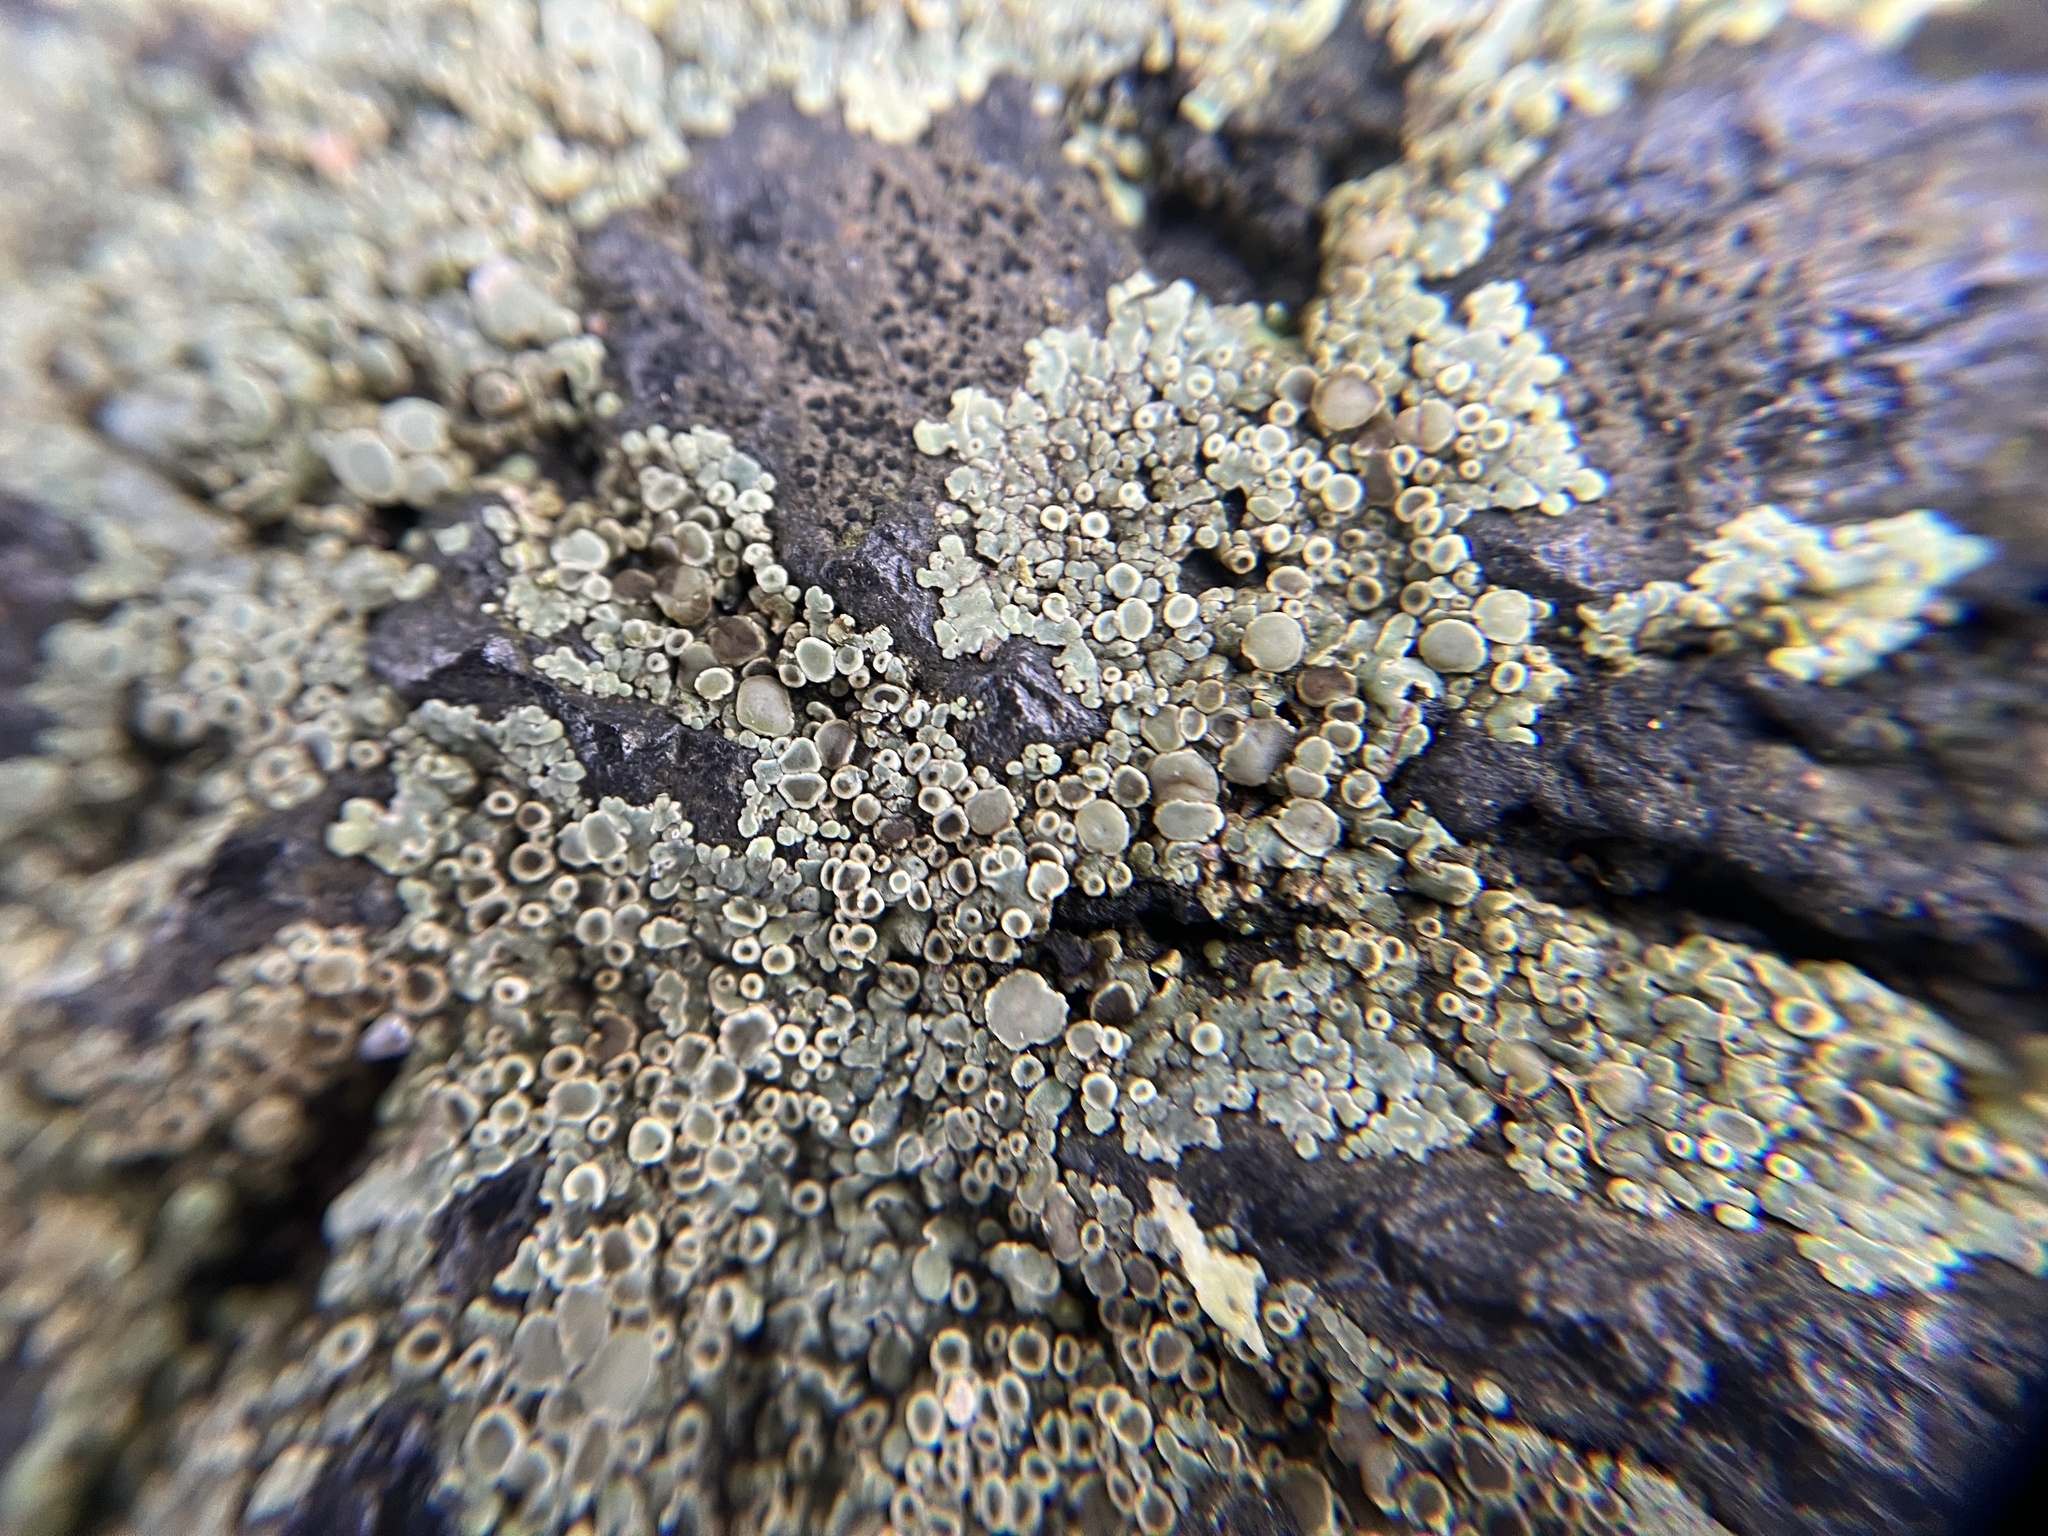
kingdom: Fungi
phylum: Ascomycota
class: Lecanoromycetes
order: Lecanorales
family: Lecanoraceae
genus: Protoparmeliopsis
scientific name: Protoparmeliopsis muralis
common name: Stonewall rim lichen
